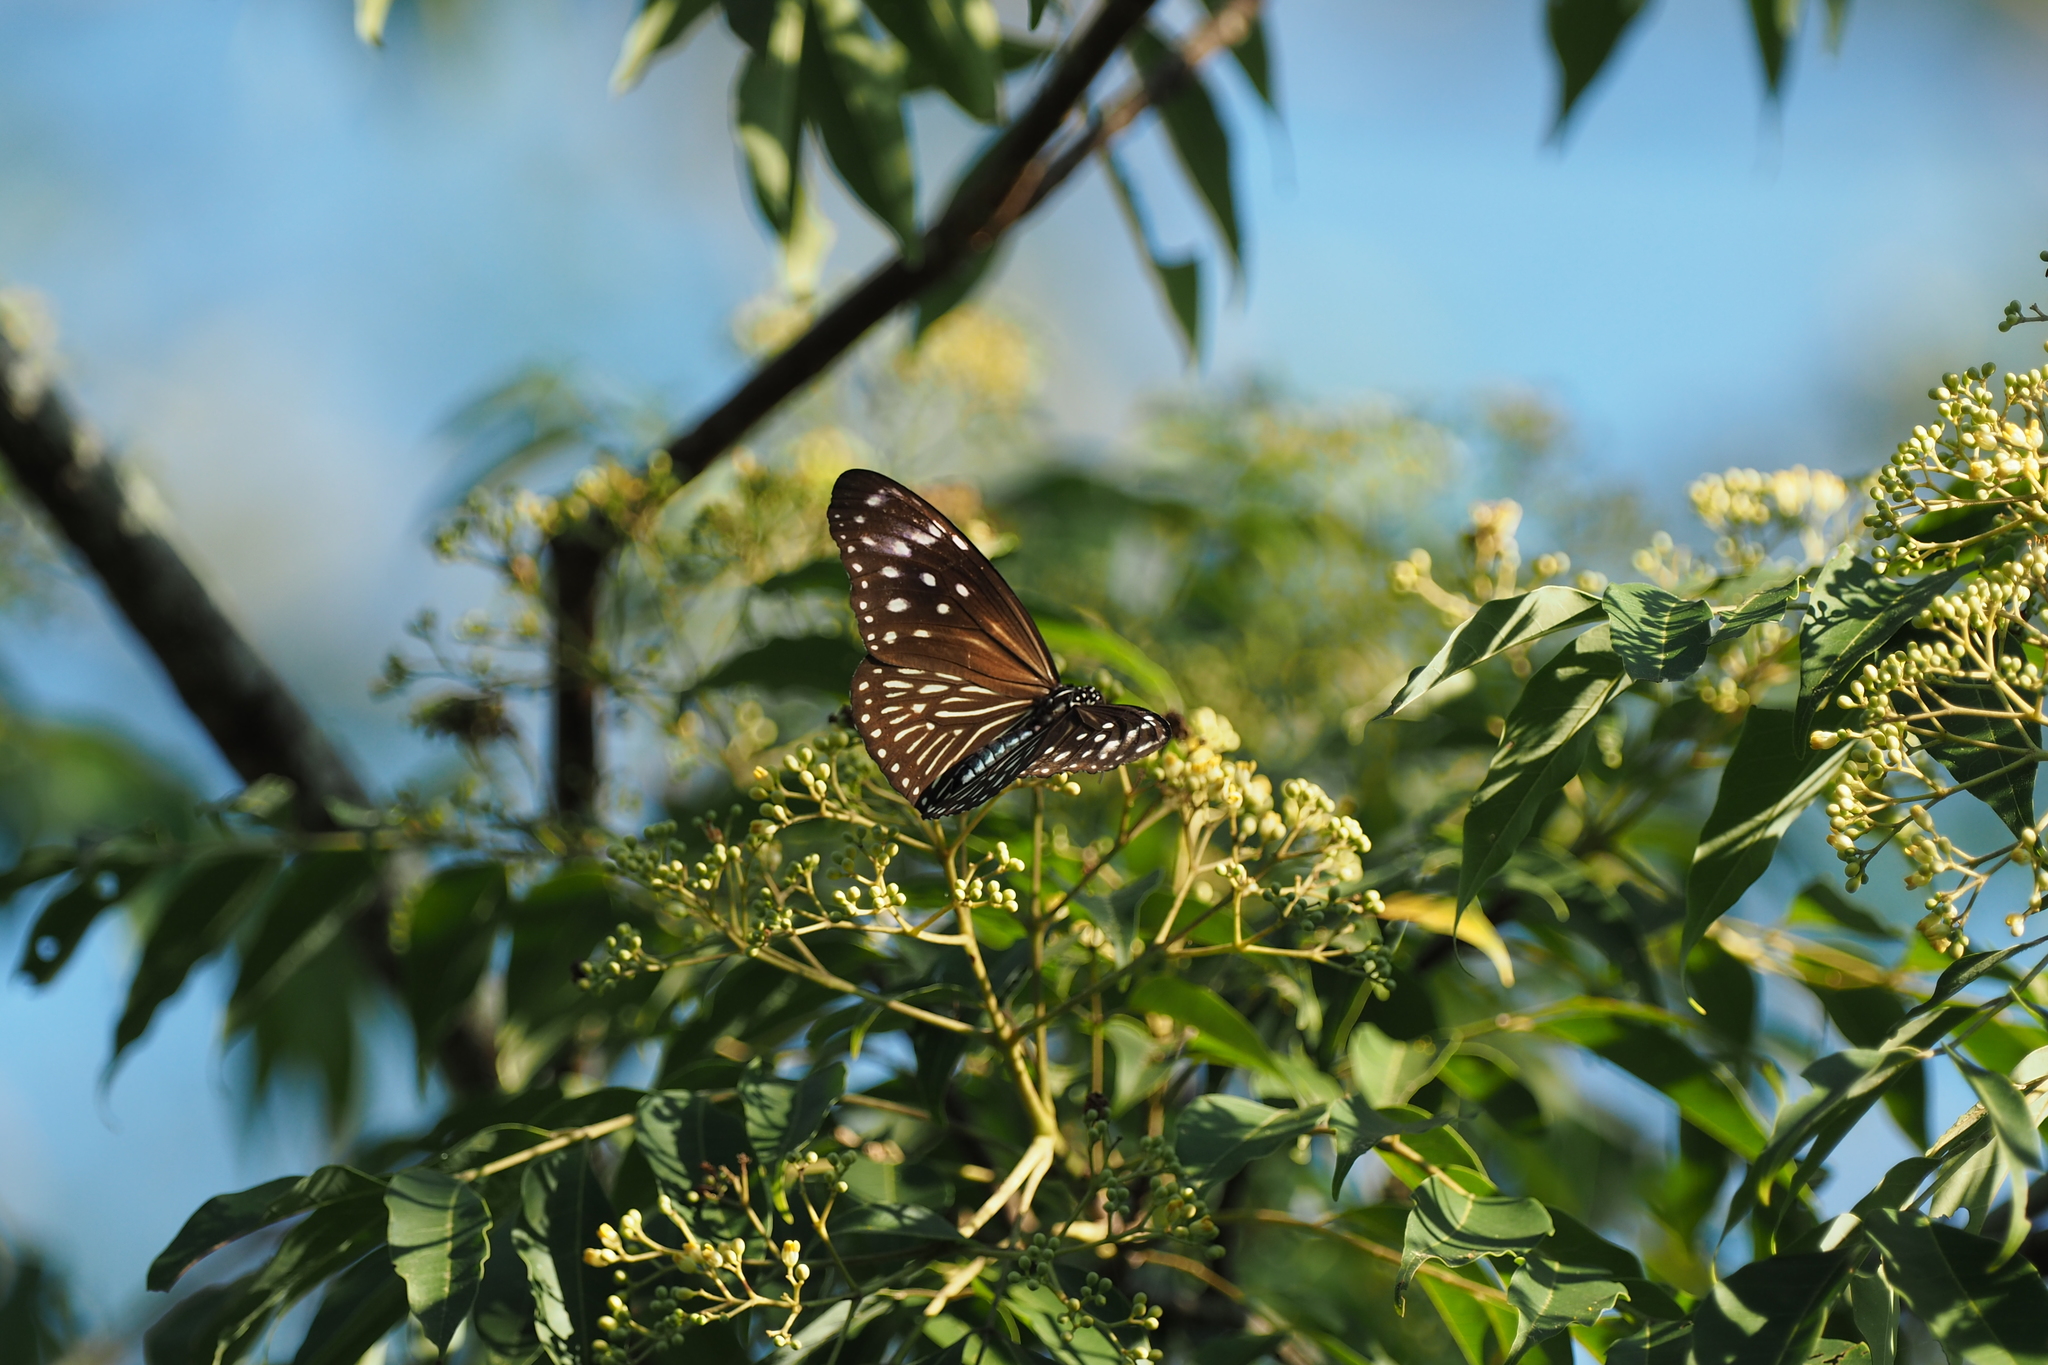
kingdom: Animalia
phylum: Arthropoda
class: Insecta
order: Lepidoptera
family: Nymphalidae
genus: Euploea
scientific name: Euploea mulciber
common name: Striped blue crow butterfly
